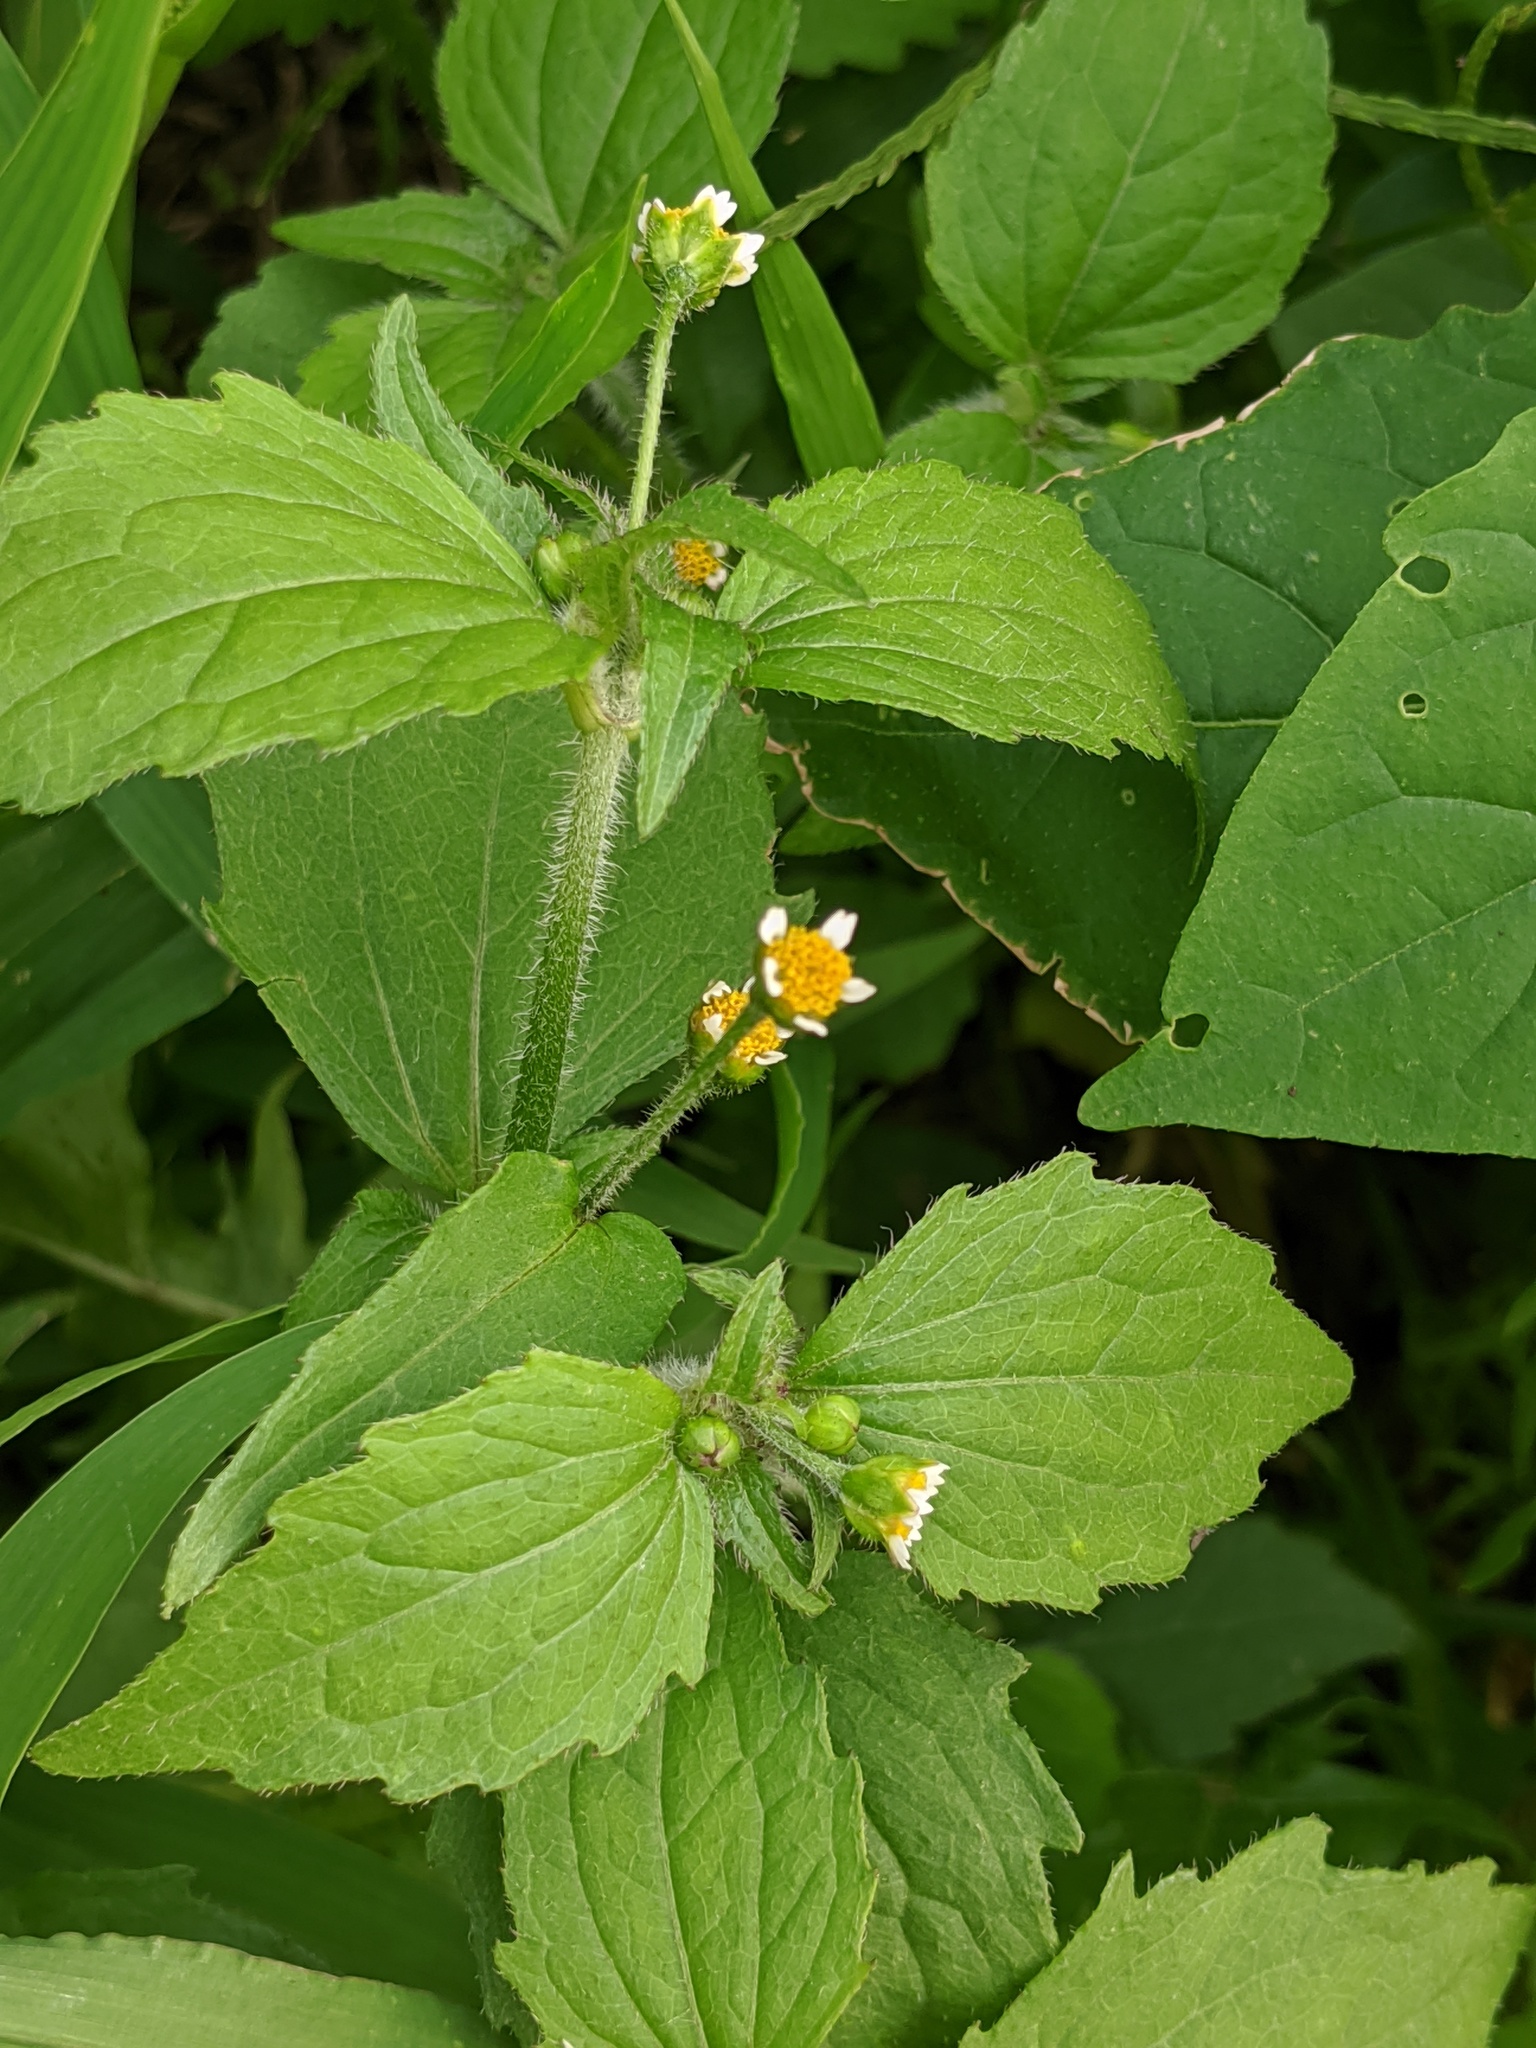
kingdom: Plantae
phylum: Tracheophyta
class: Magnoliopsida
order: Asterales
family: Asteraceae
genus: Galinsoga
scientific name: Galinsoga quadriradiata
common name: Shaggy soldier
